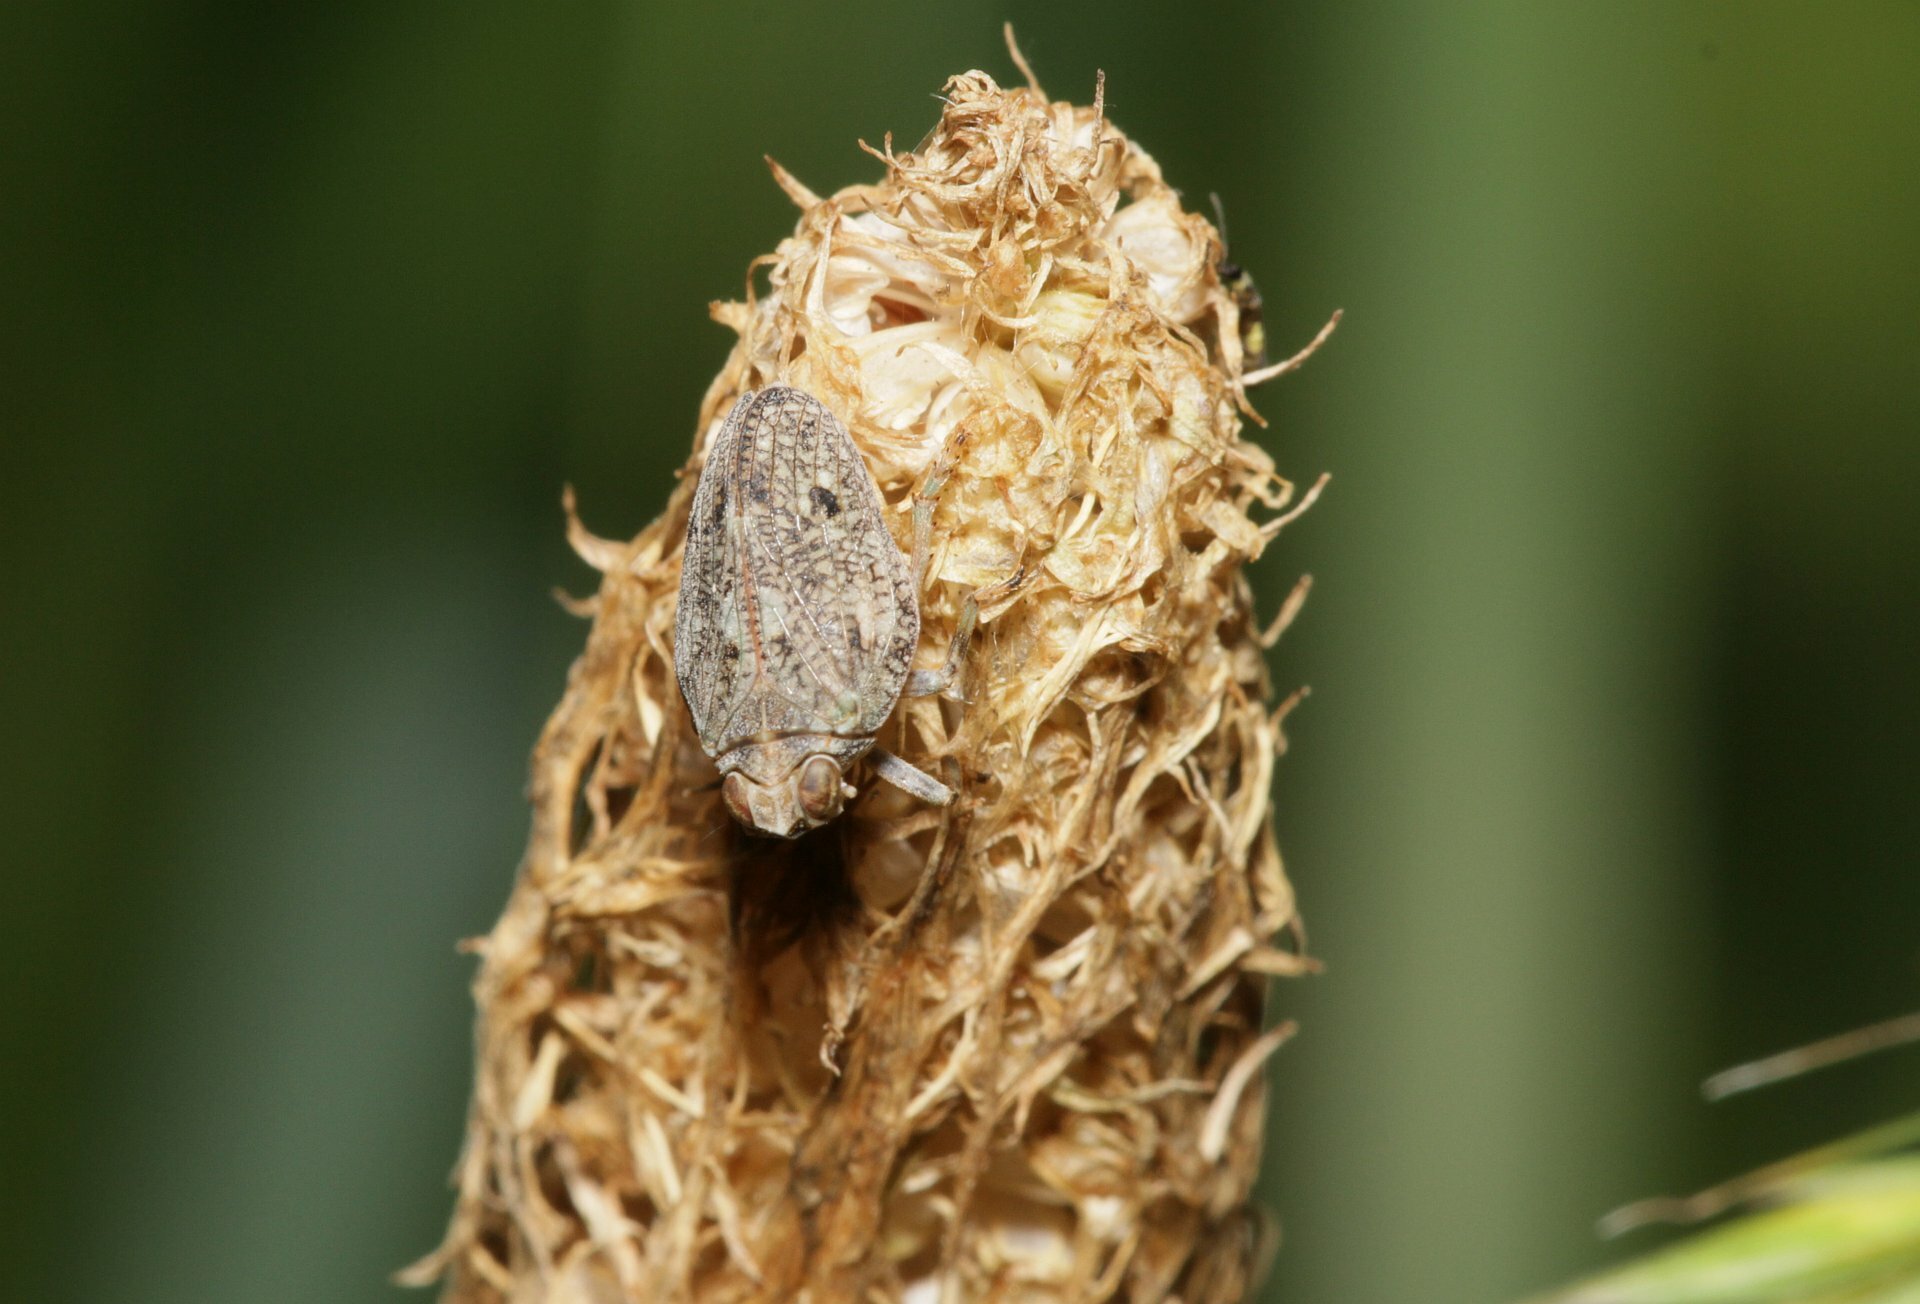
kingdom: Animalia
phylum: Arthropoda
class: Insecta
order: Hemiptera
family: Issidae
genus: Issus
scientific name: Issus coleoptratus
